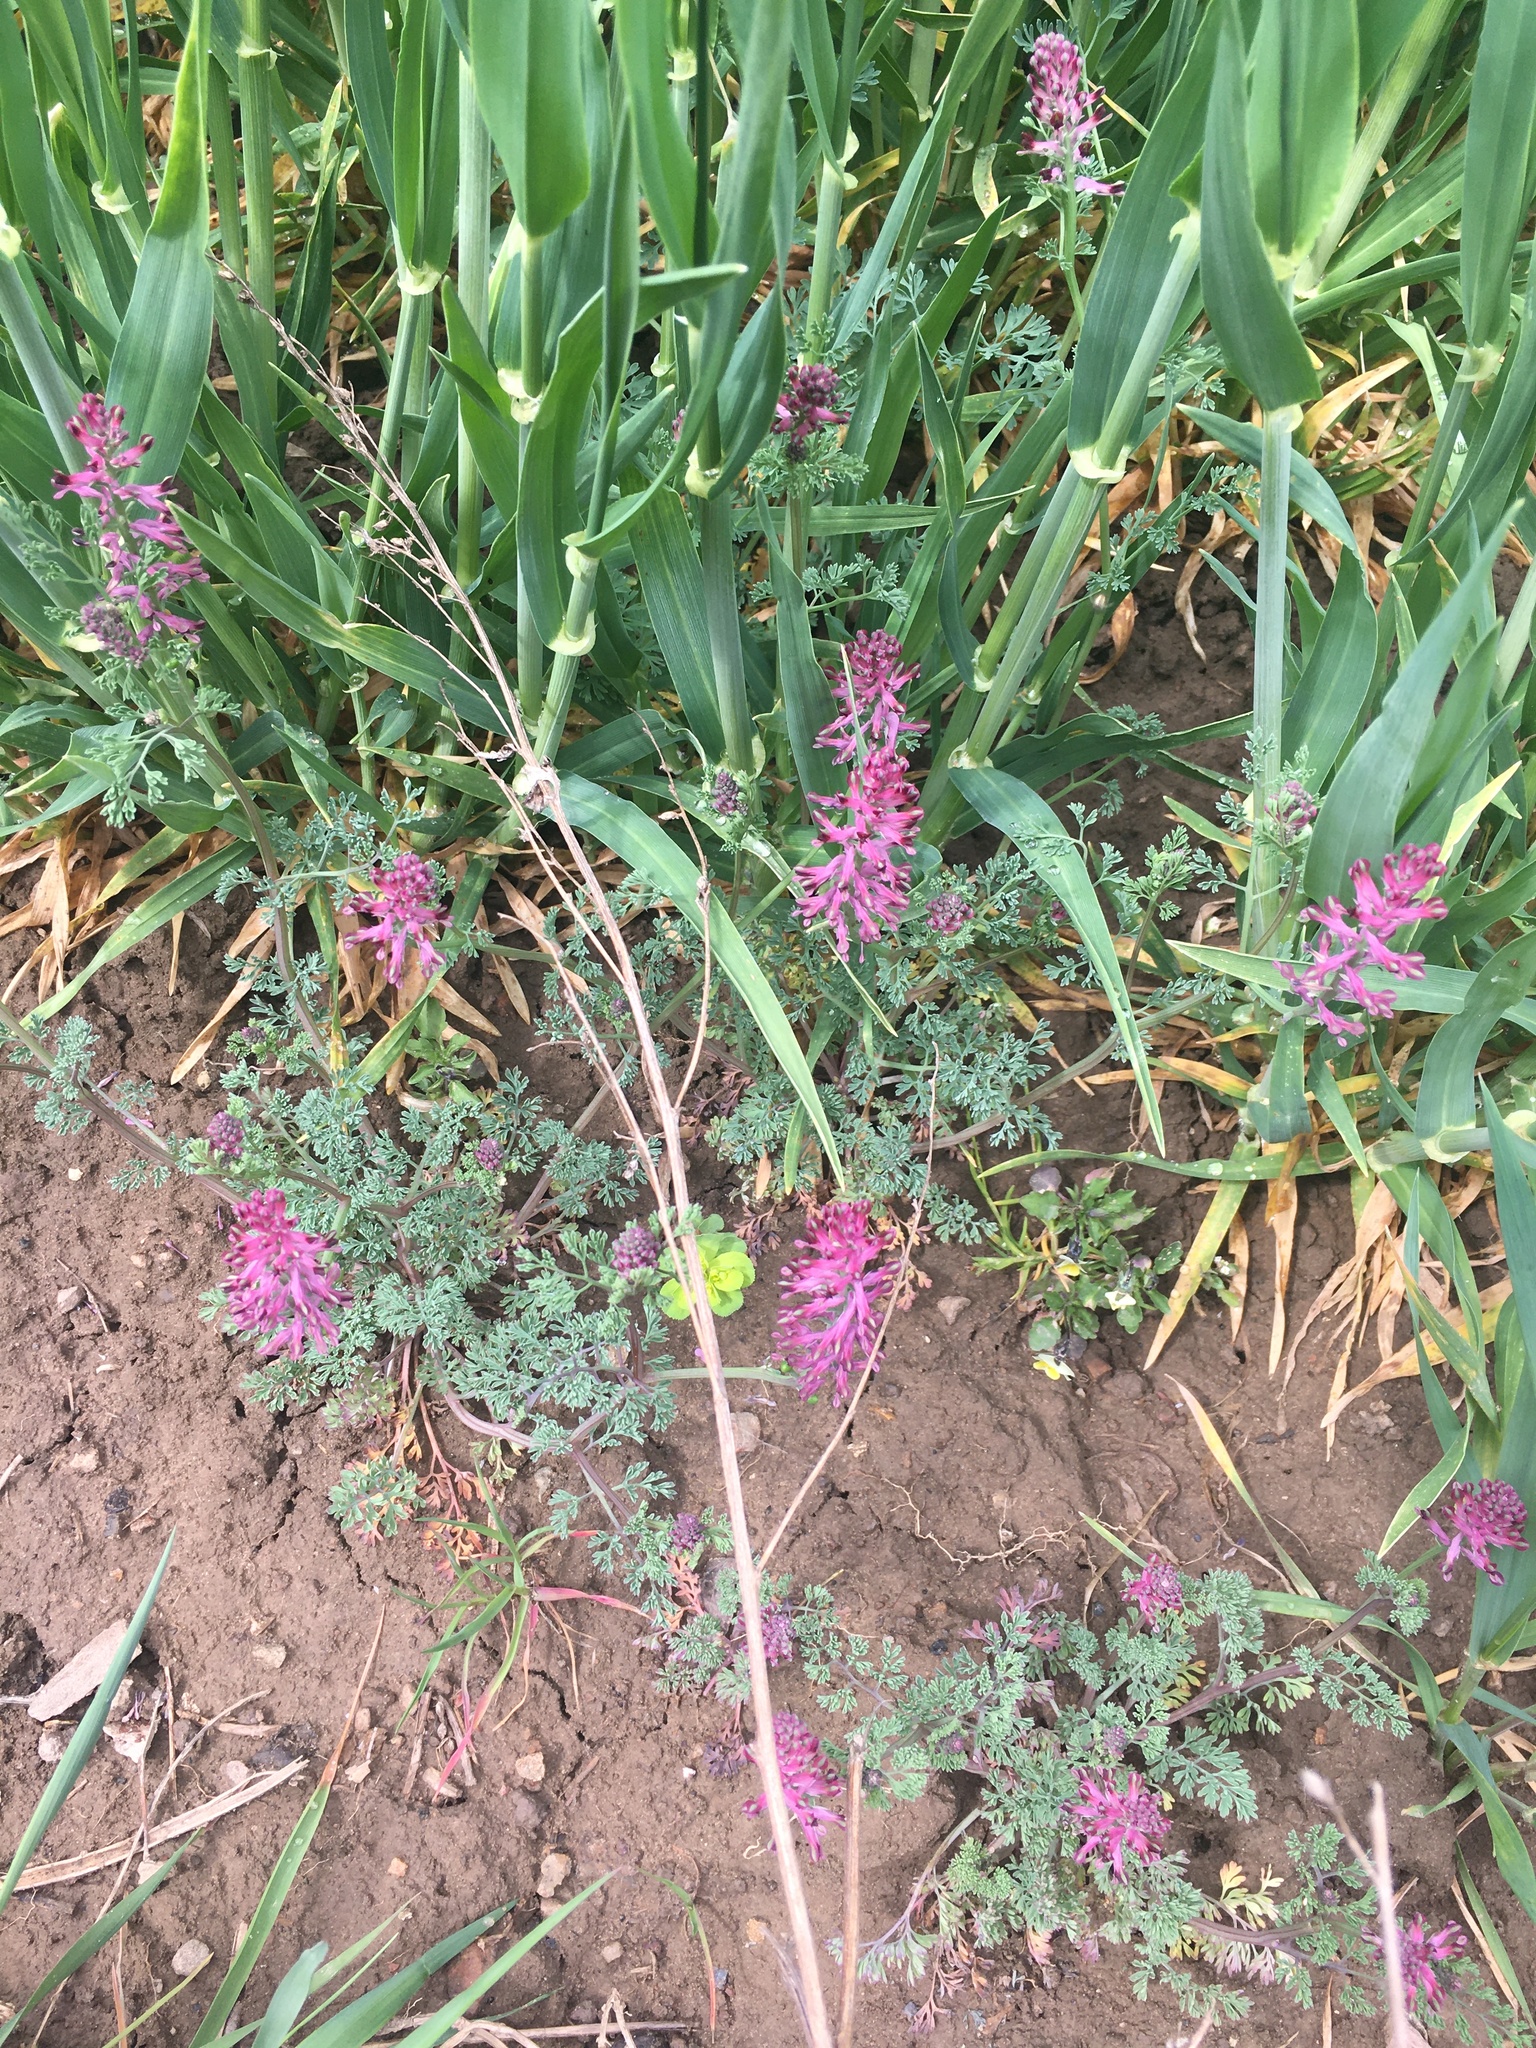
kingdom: Plantae
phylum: Tracheophyta
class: Magnoliopsida
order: Ranunculales
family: Papaveraceae
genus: Fumaria
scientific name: Fumaria officinalis
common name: Common fumitory
